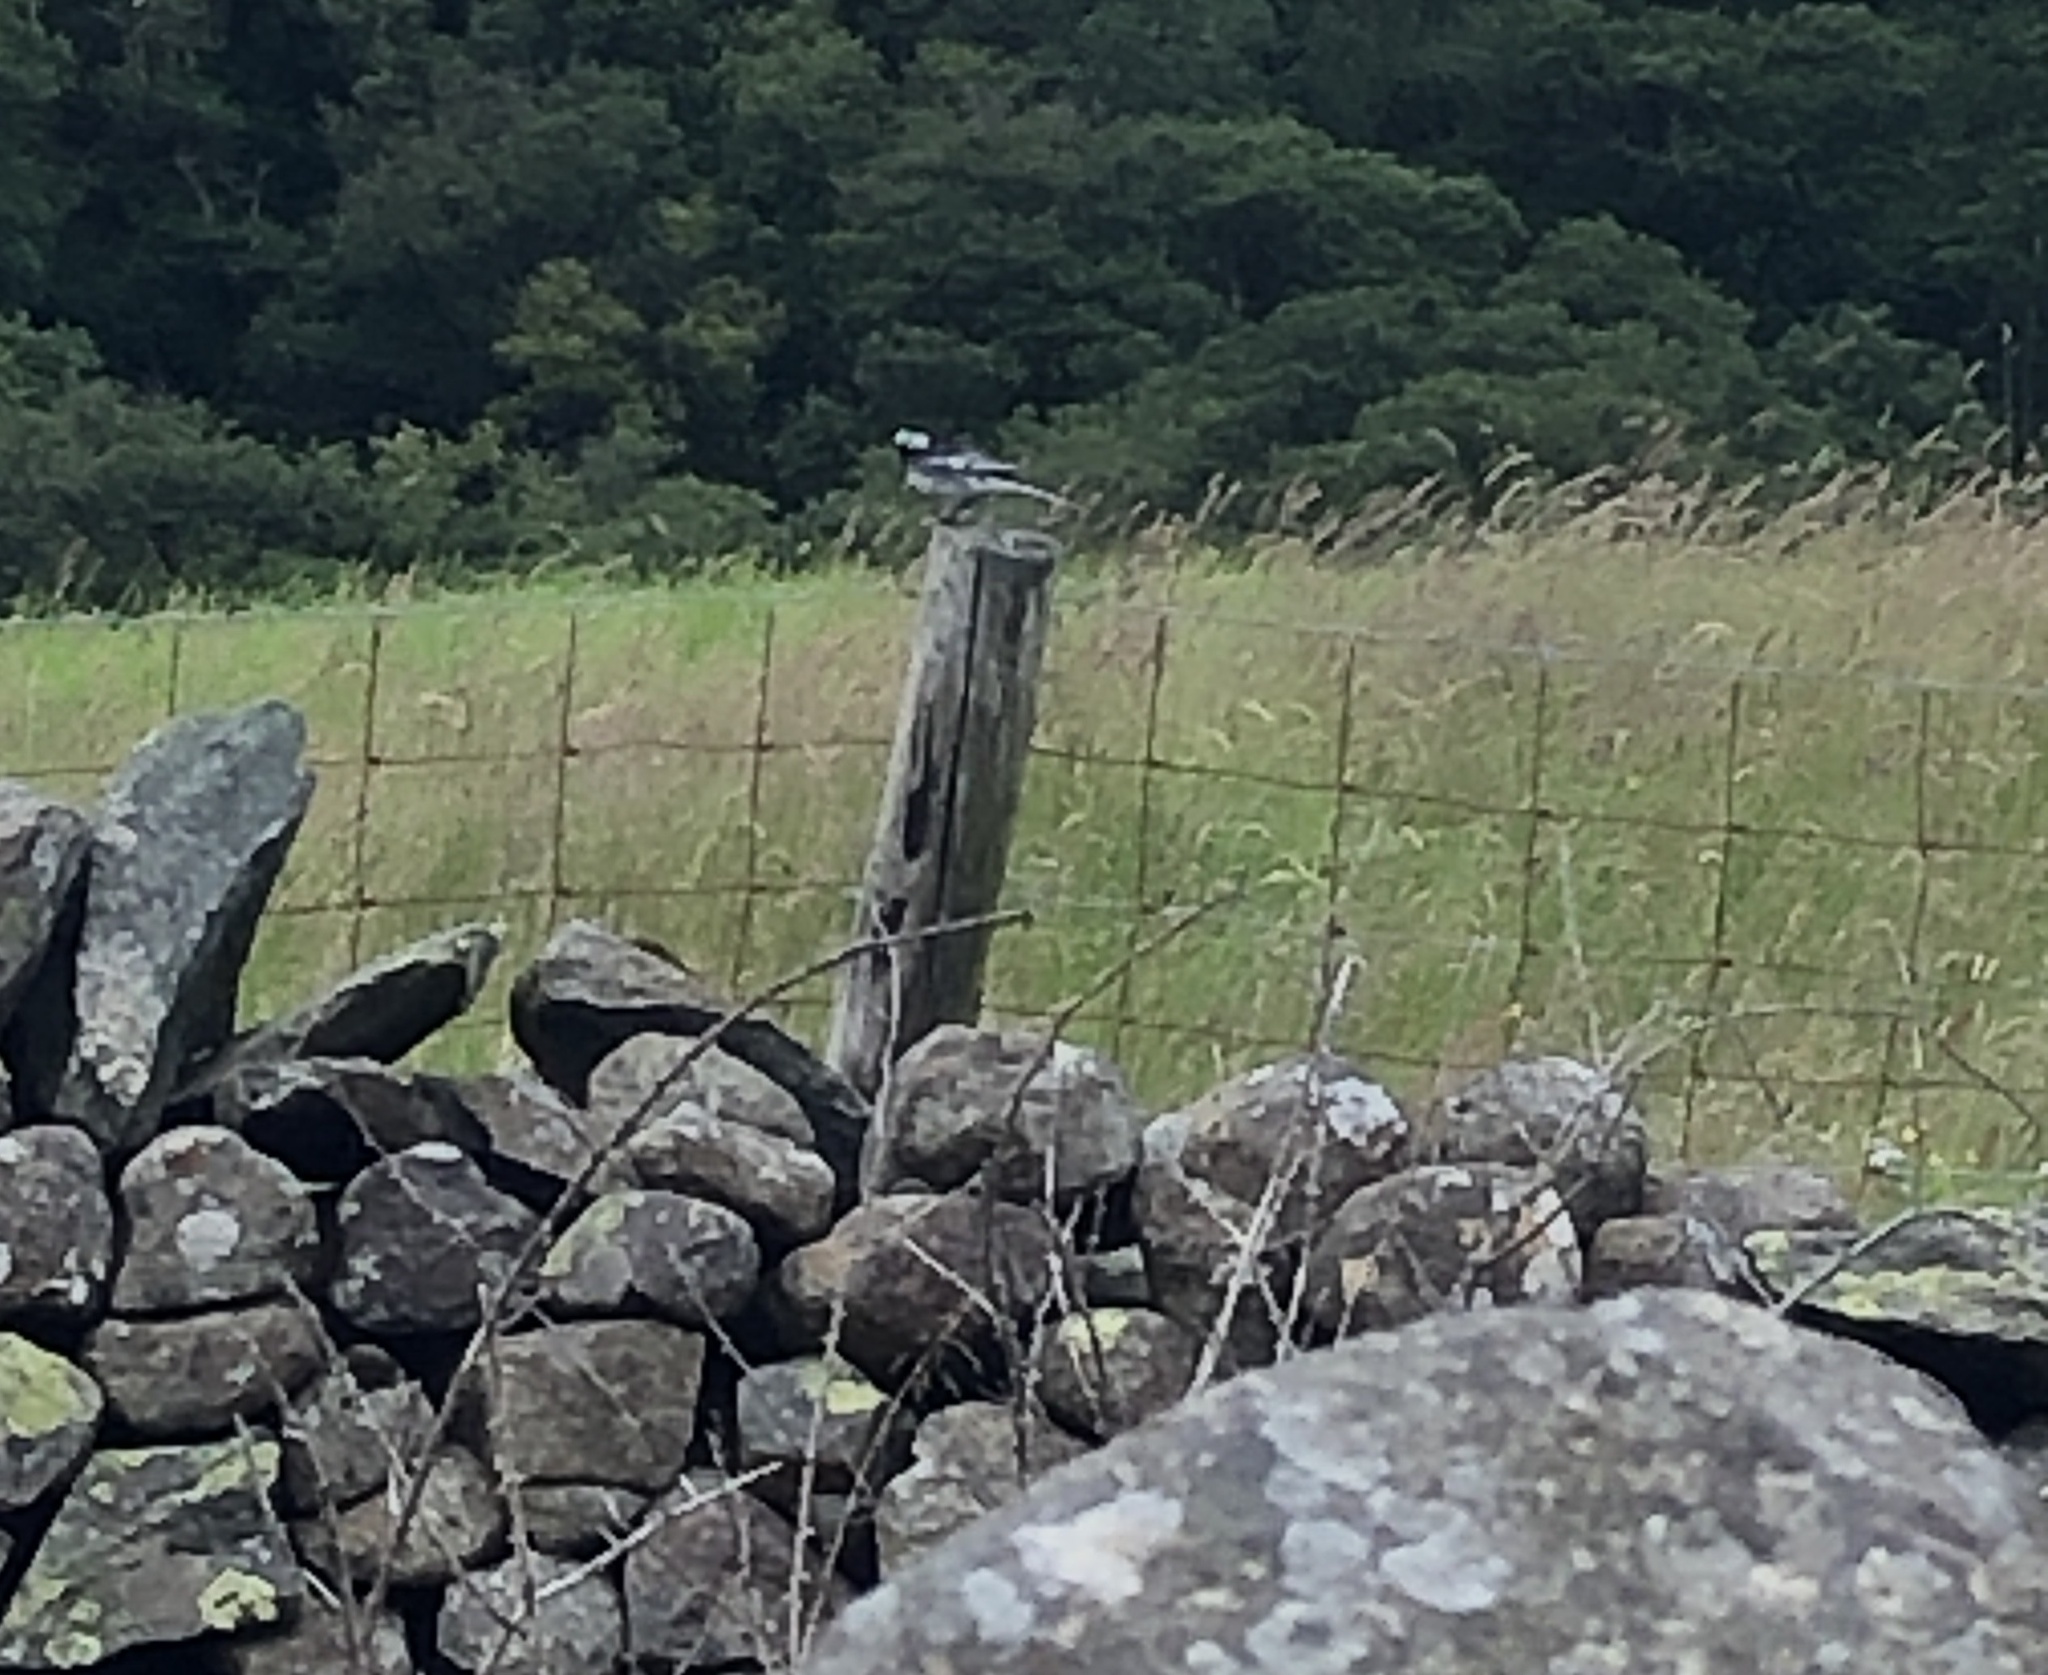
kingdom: Animalia
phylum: Chordata
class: Aves
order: Passeriformes
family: Motacillidae
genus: Motacilla
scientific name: Motacilla alba
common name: White wagtail
